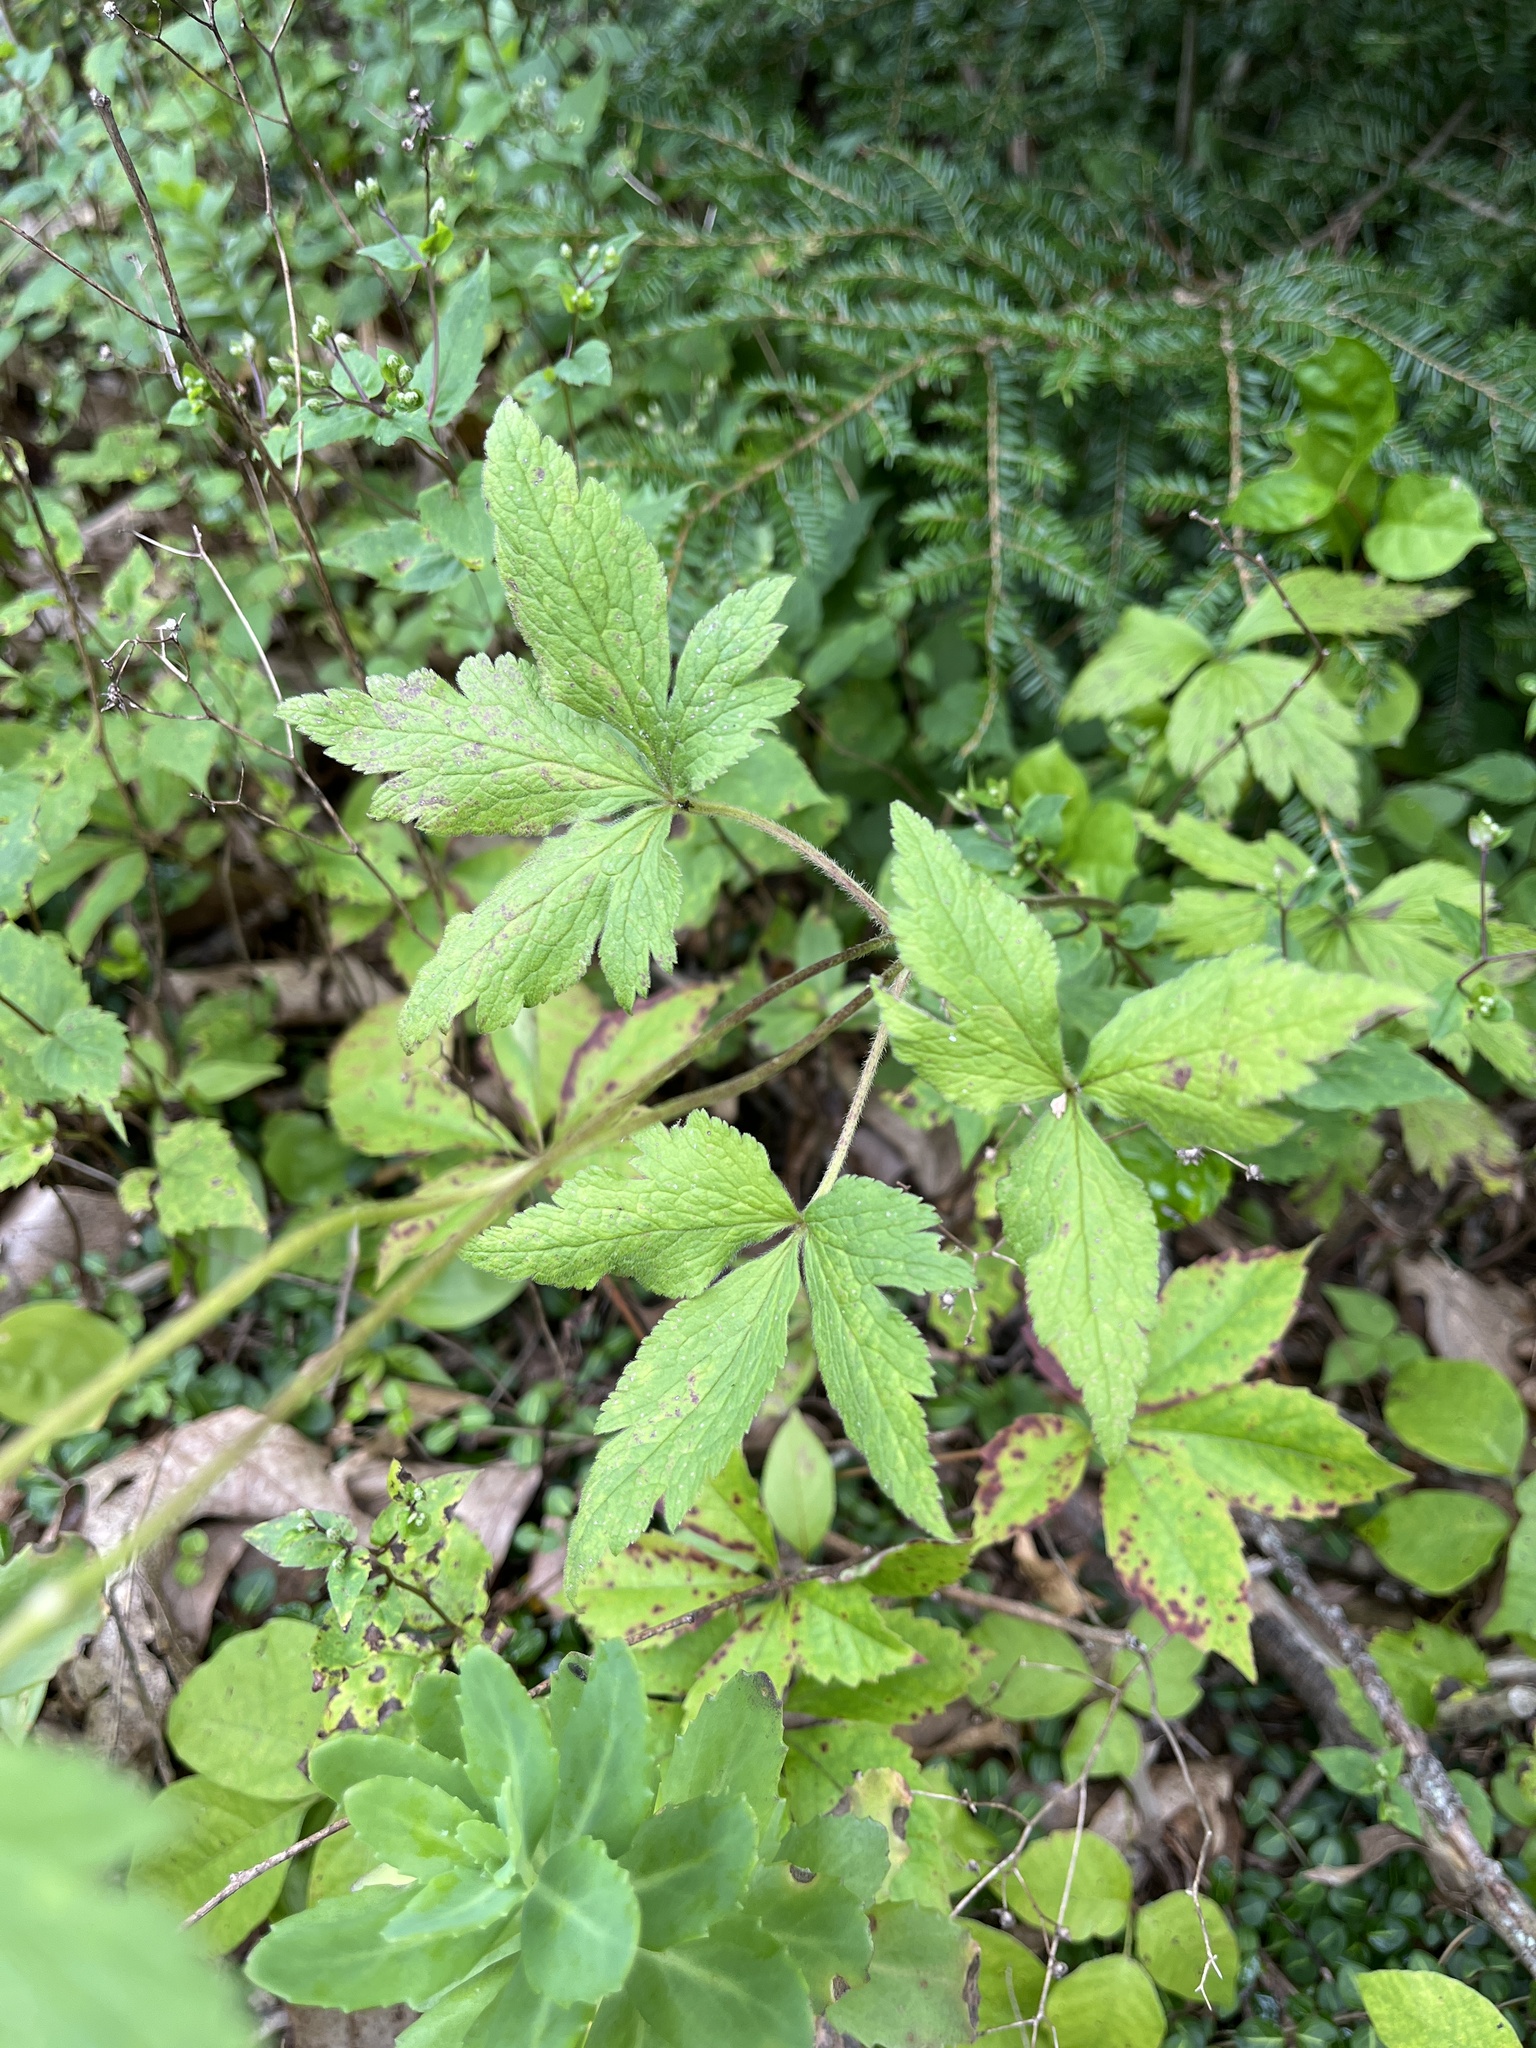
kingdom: Plantae
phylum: Tracheophyta
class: Magnoliopsida
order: Ranunculales
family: Ranunculaceae
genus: Anemone
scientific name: Anemone virginiana
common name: Tall anemone
